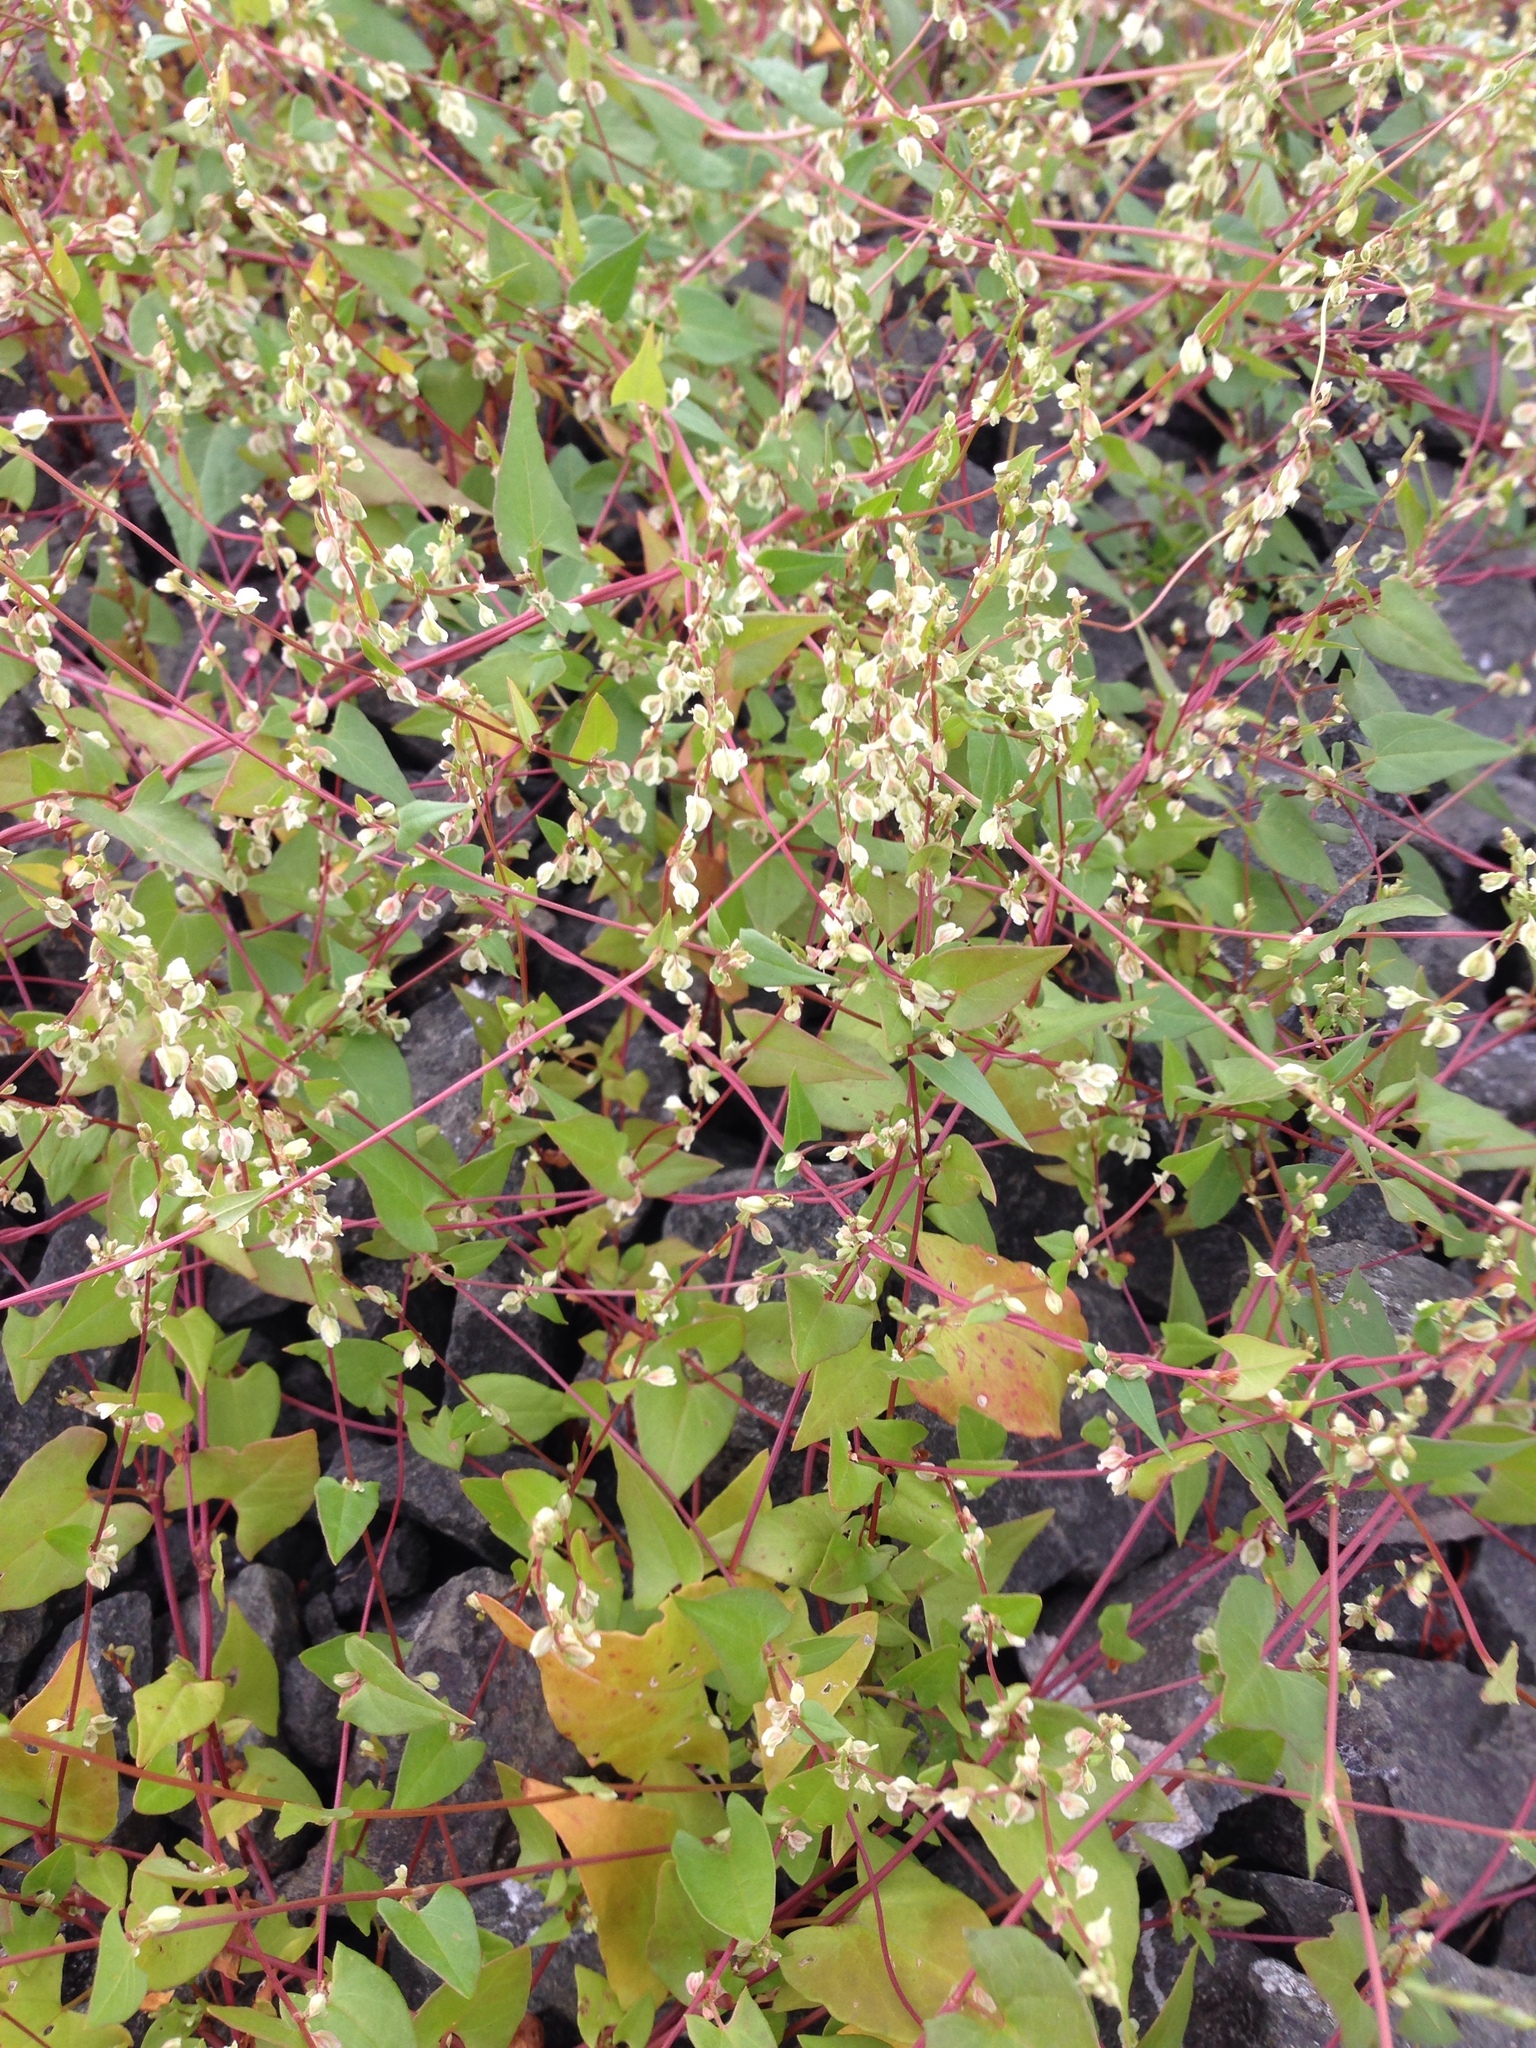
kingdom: Plantae
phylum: Tracheophyta
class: Magnoliopsida
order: Caryophyllales
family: Polygonaceae
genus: Fallopia
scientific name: Fallopia dumetorum
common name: Copse-bindweed
